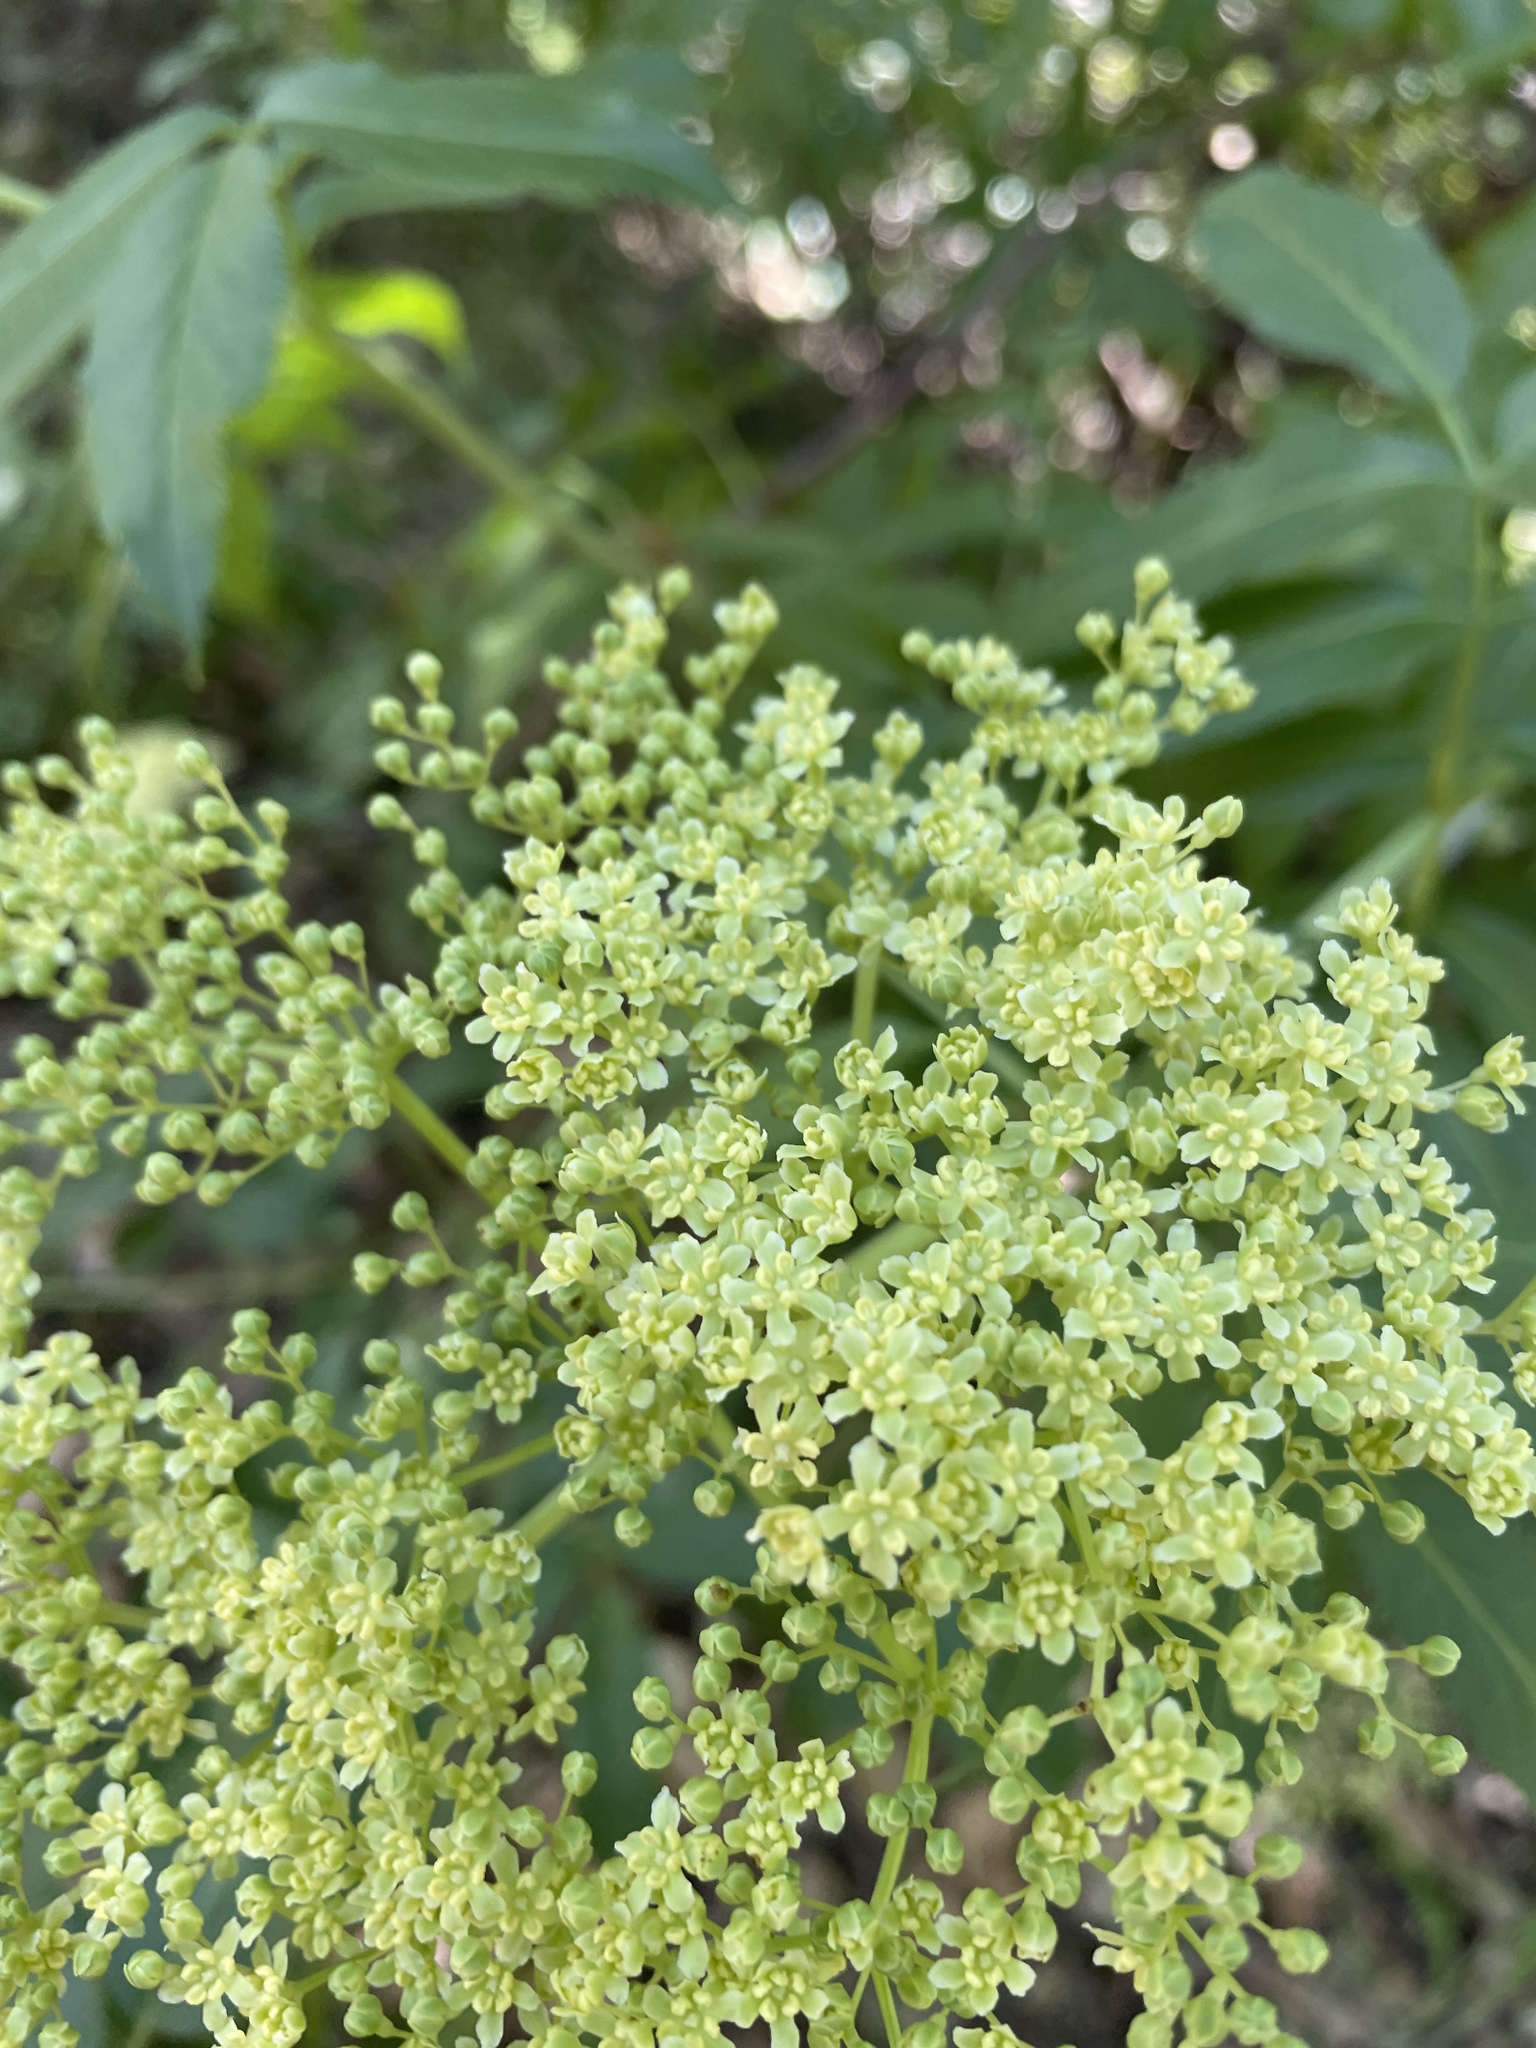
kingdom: Plantae
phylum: Tracheophyta
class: Magnoliopsida
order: Dipsacales
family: Viburnaceae
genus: Sambucus
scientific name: Sambucus cerulea
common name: Blue elder
